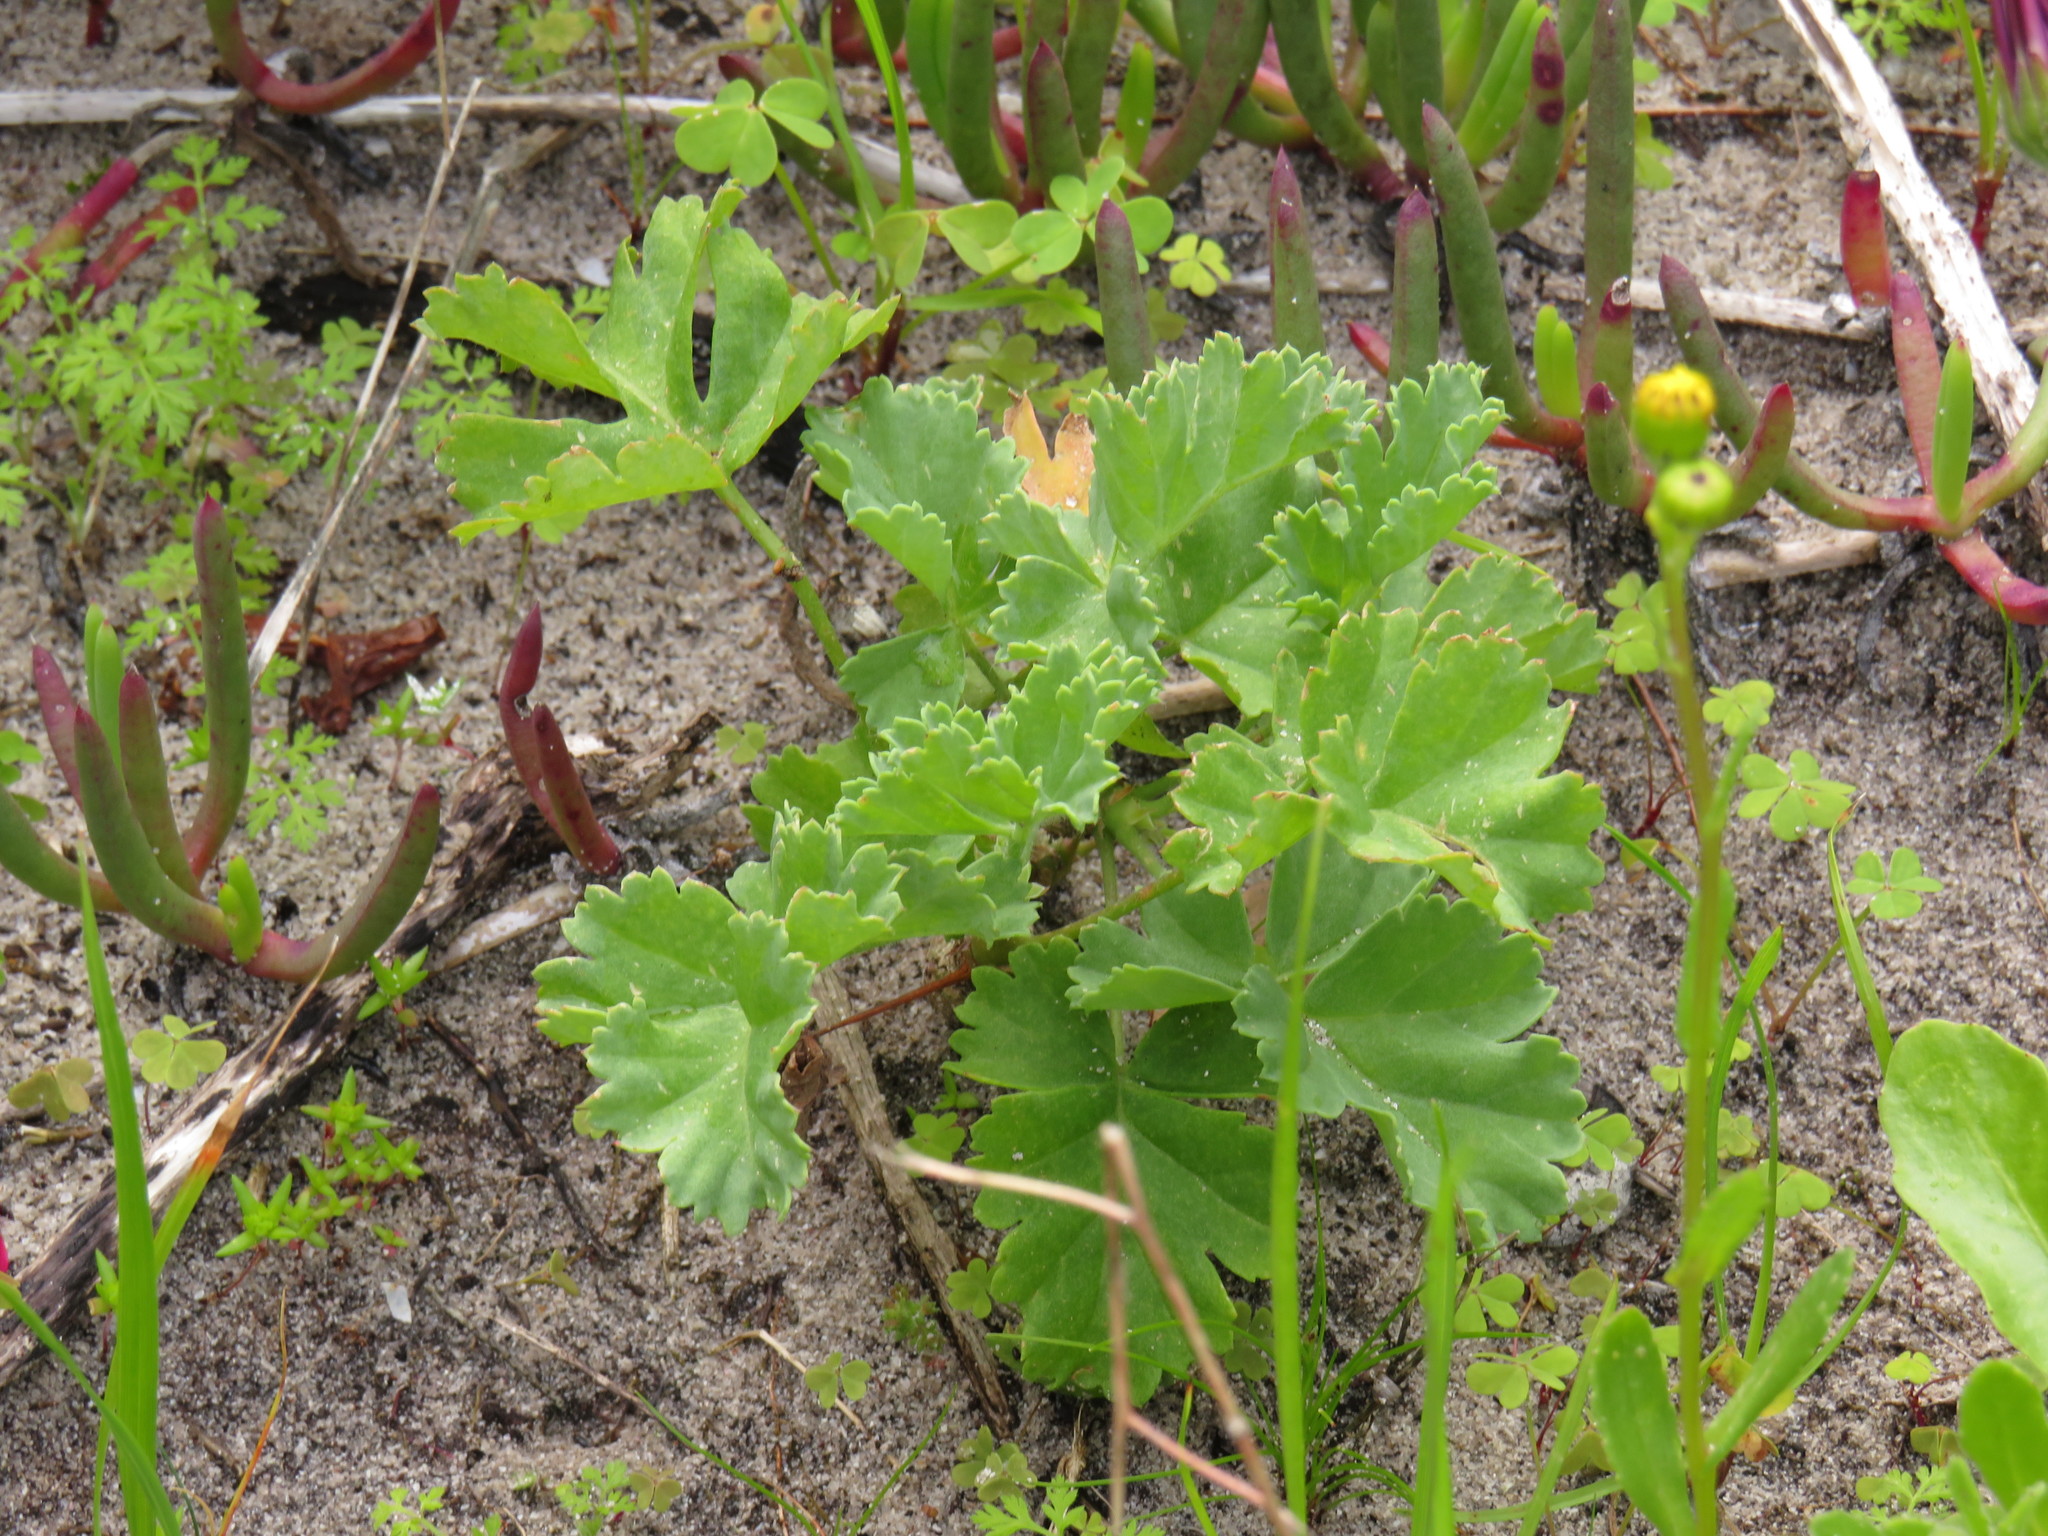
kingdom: Plantae
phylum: Tracheophyta
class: Magnoliopsida
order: Geraniales
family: Geraniaceae
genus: Pelargonium
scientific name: Pelargonium gibbosum
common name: Gouty geranium
